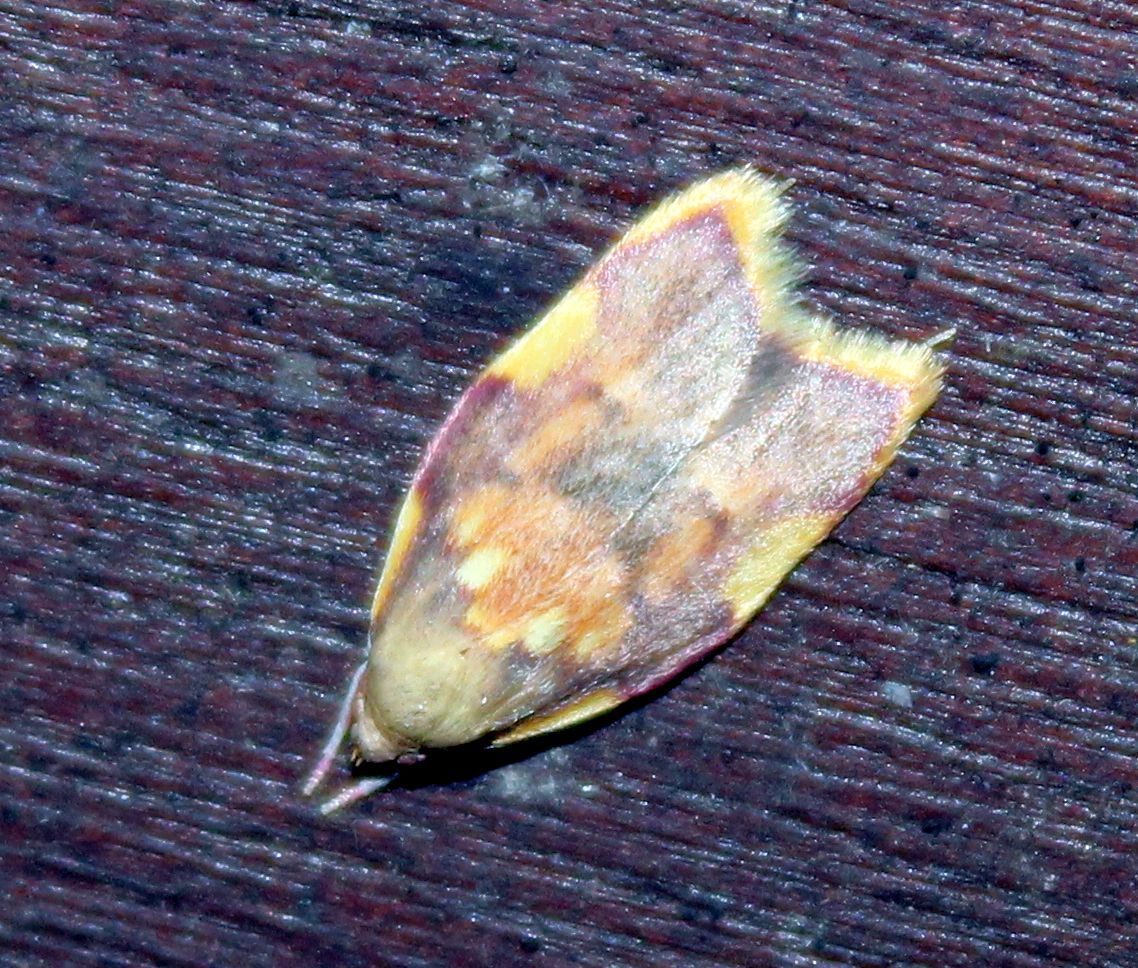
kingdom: Animalia
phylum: Arthropoda
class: Insecta
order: Lepidoptera
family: Peleopodidae
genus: Carcina
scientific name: Carcina quercana
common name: Moth
